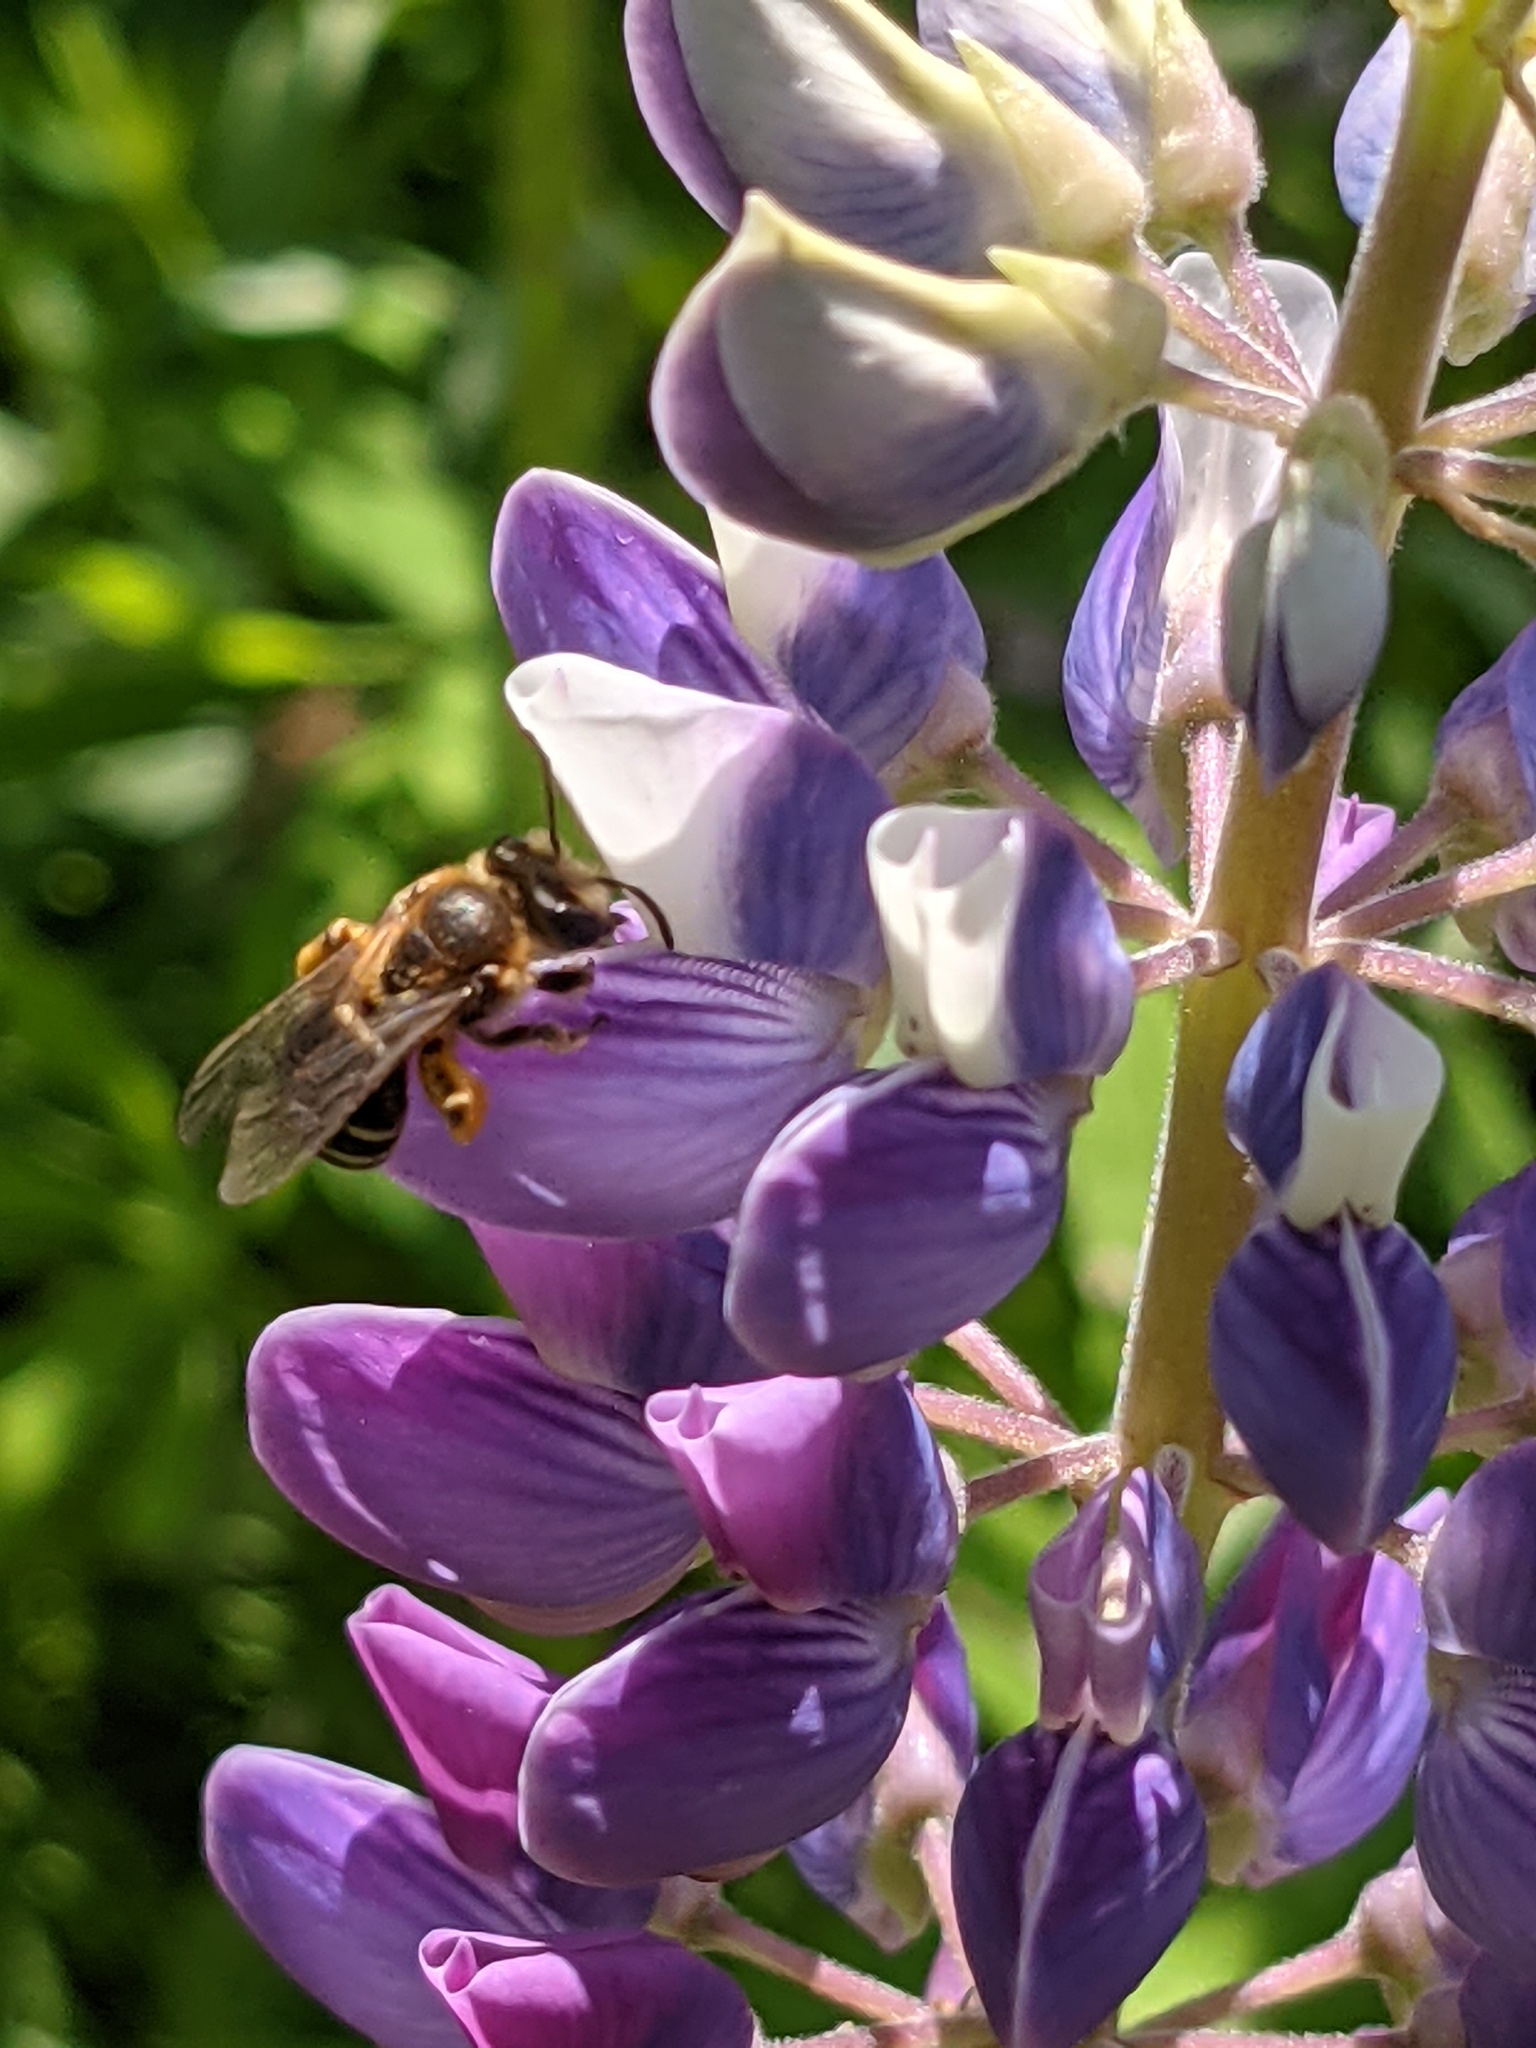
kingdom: Animalia
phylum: Arthropoda
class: Insecta
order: Hymenoptera
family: Andrenidae
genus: Andrena
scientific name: Andrena wilkella
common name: Wilke's mining bee
